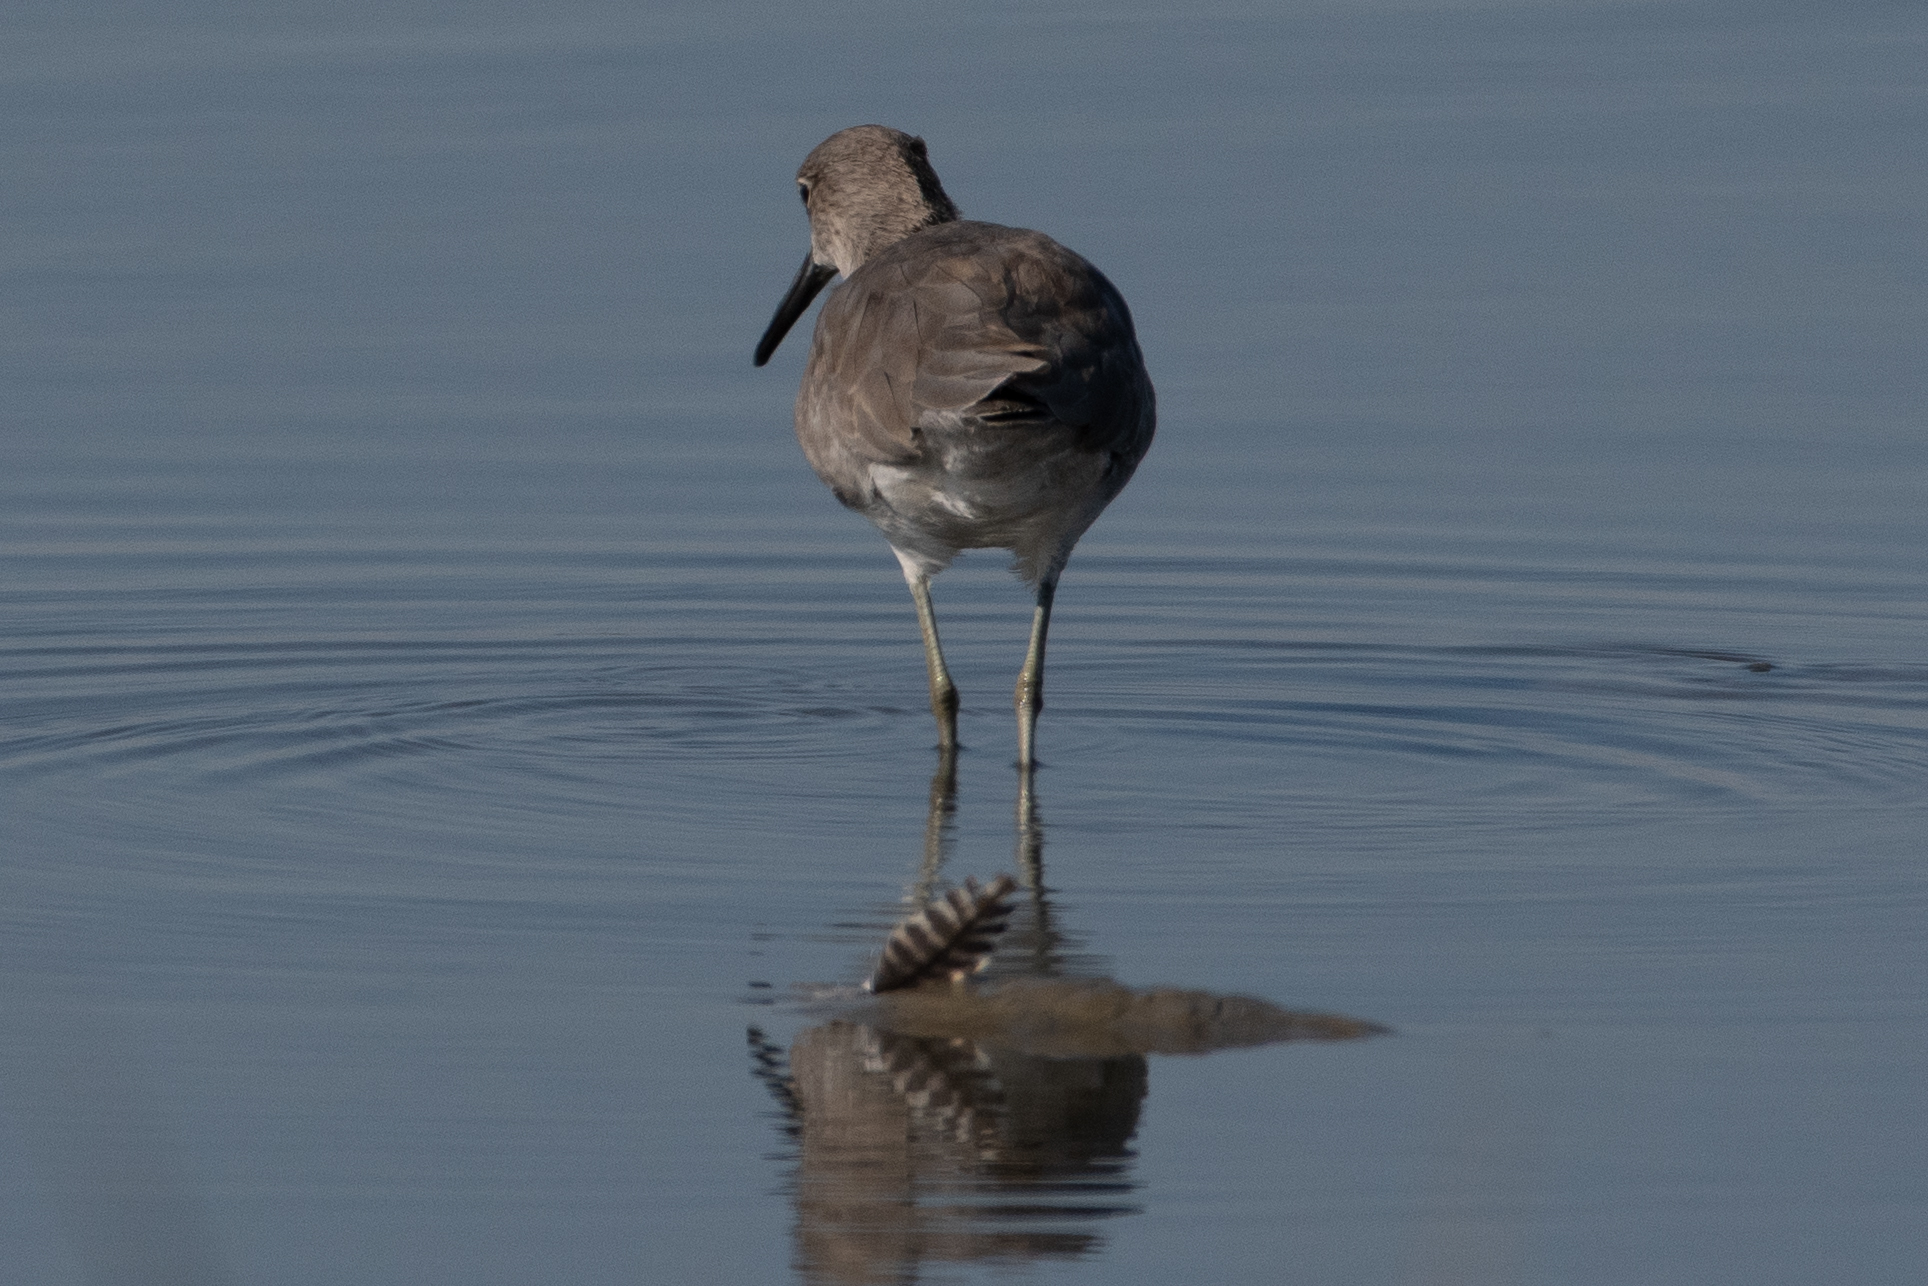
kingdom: Animalia
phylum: Chordata
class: Aves
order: Charadriiformes
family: Scolopacidae
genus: Tringa
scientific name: Tringa semipalmata
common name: Willet
